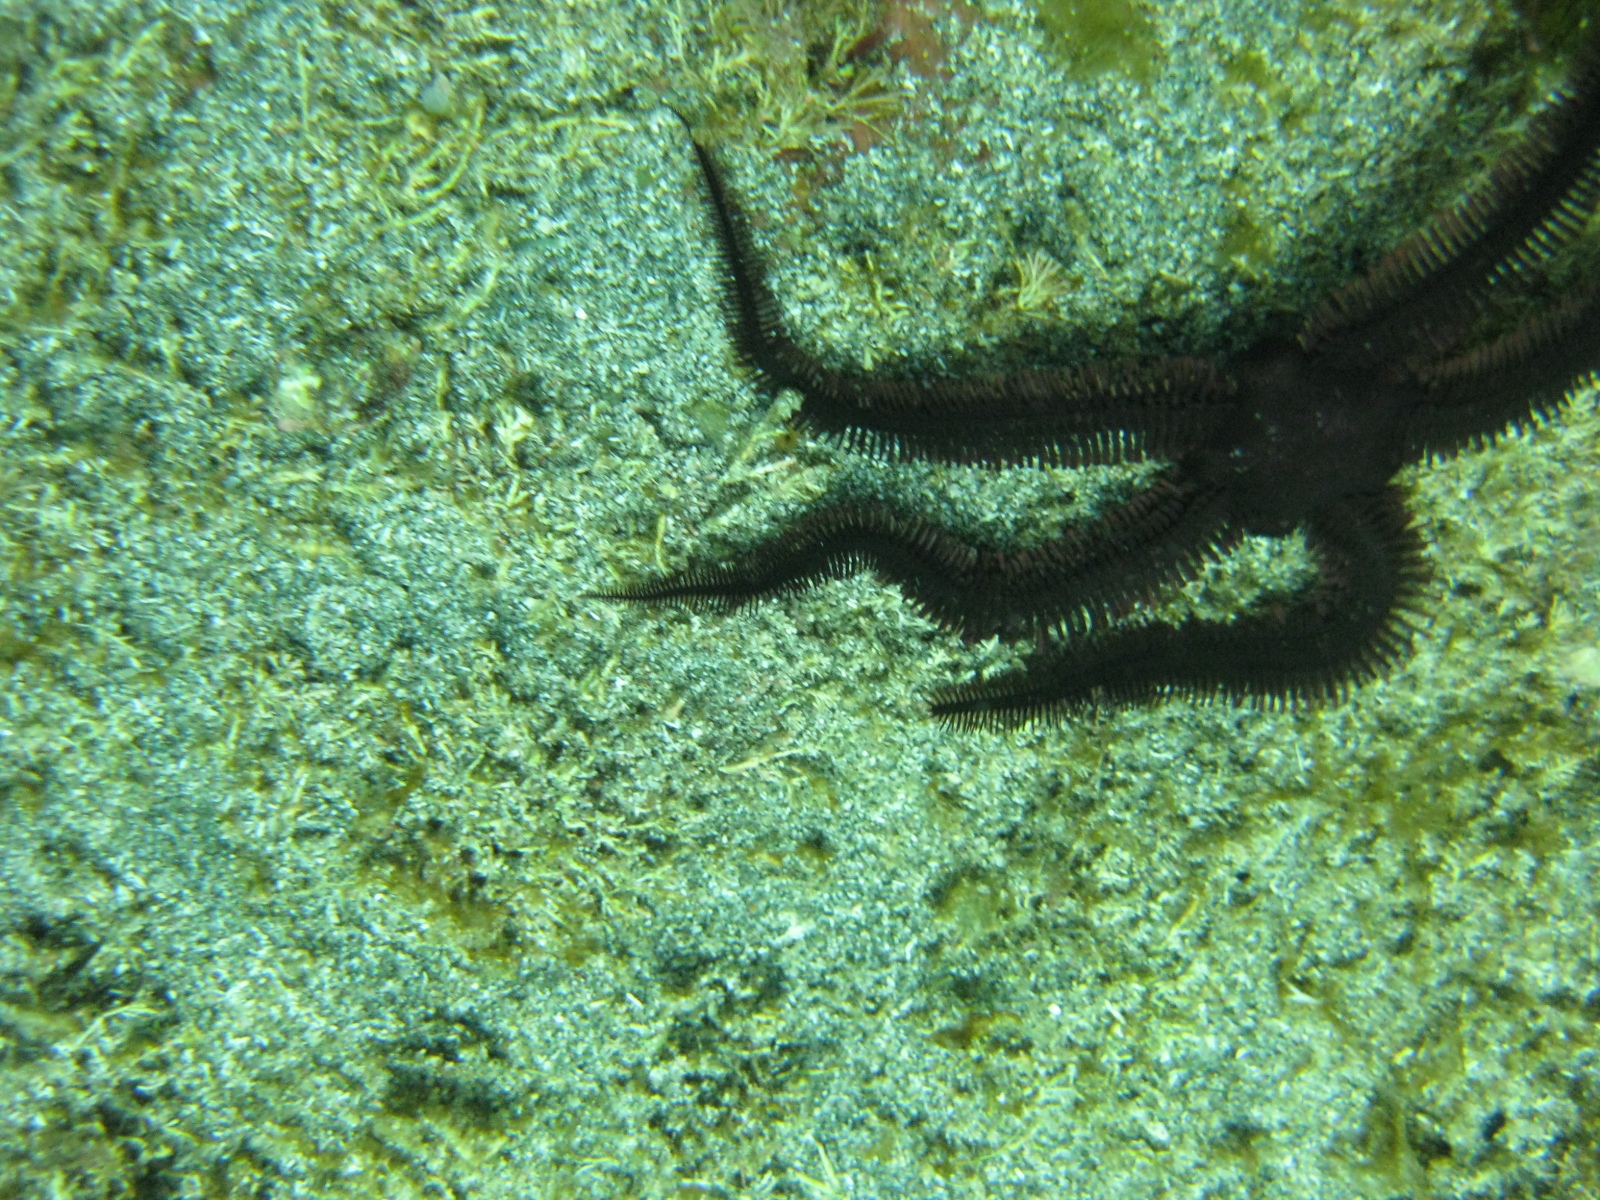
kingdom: Animalia
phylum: Echinodermata
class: Ophiuroidea
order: Ophiacanthida
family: Ophiopteridae
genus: Ophiopteris
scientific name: Ophiopteris antipodum
